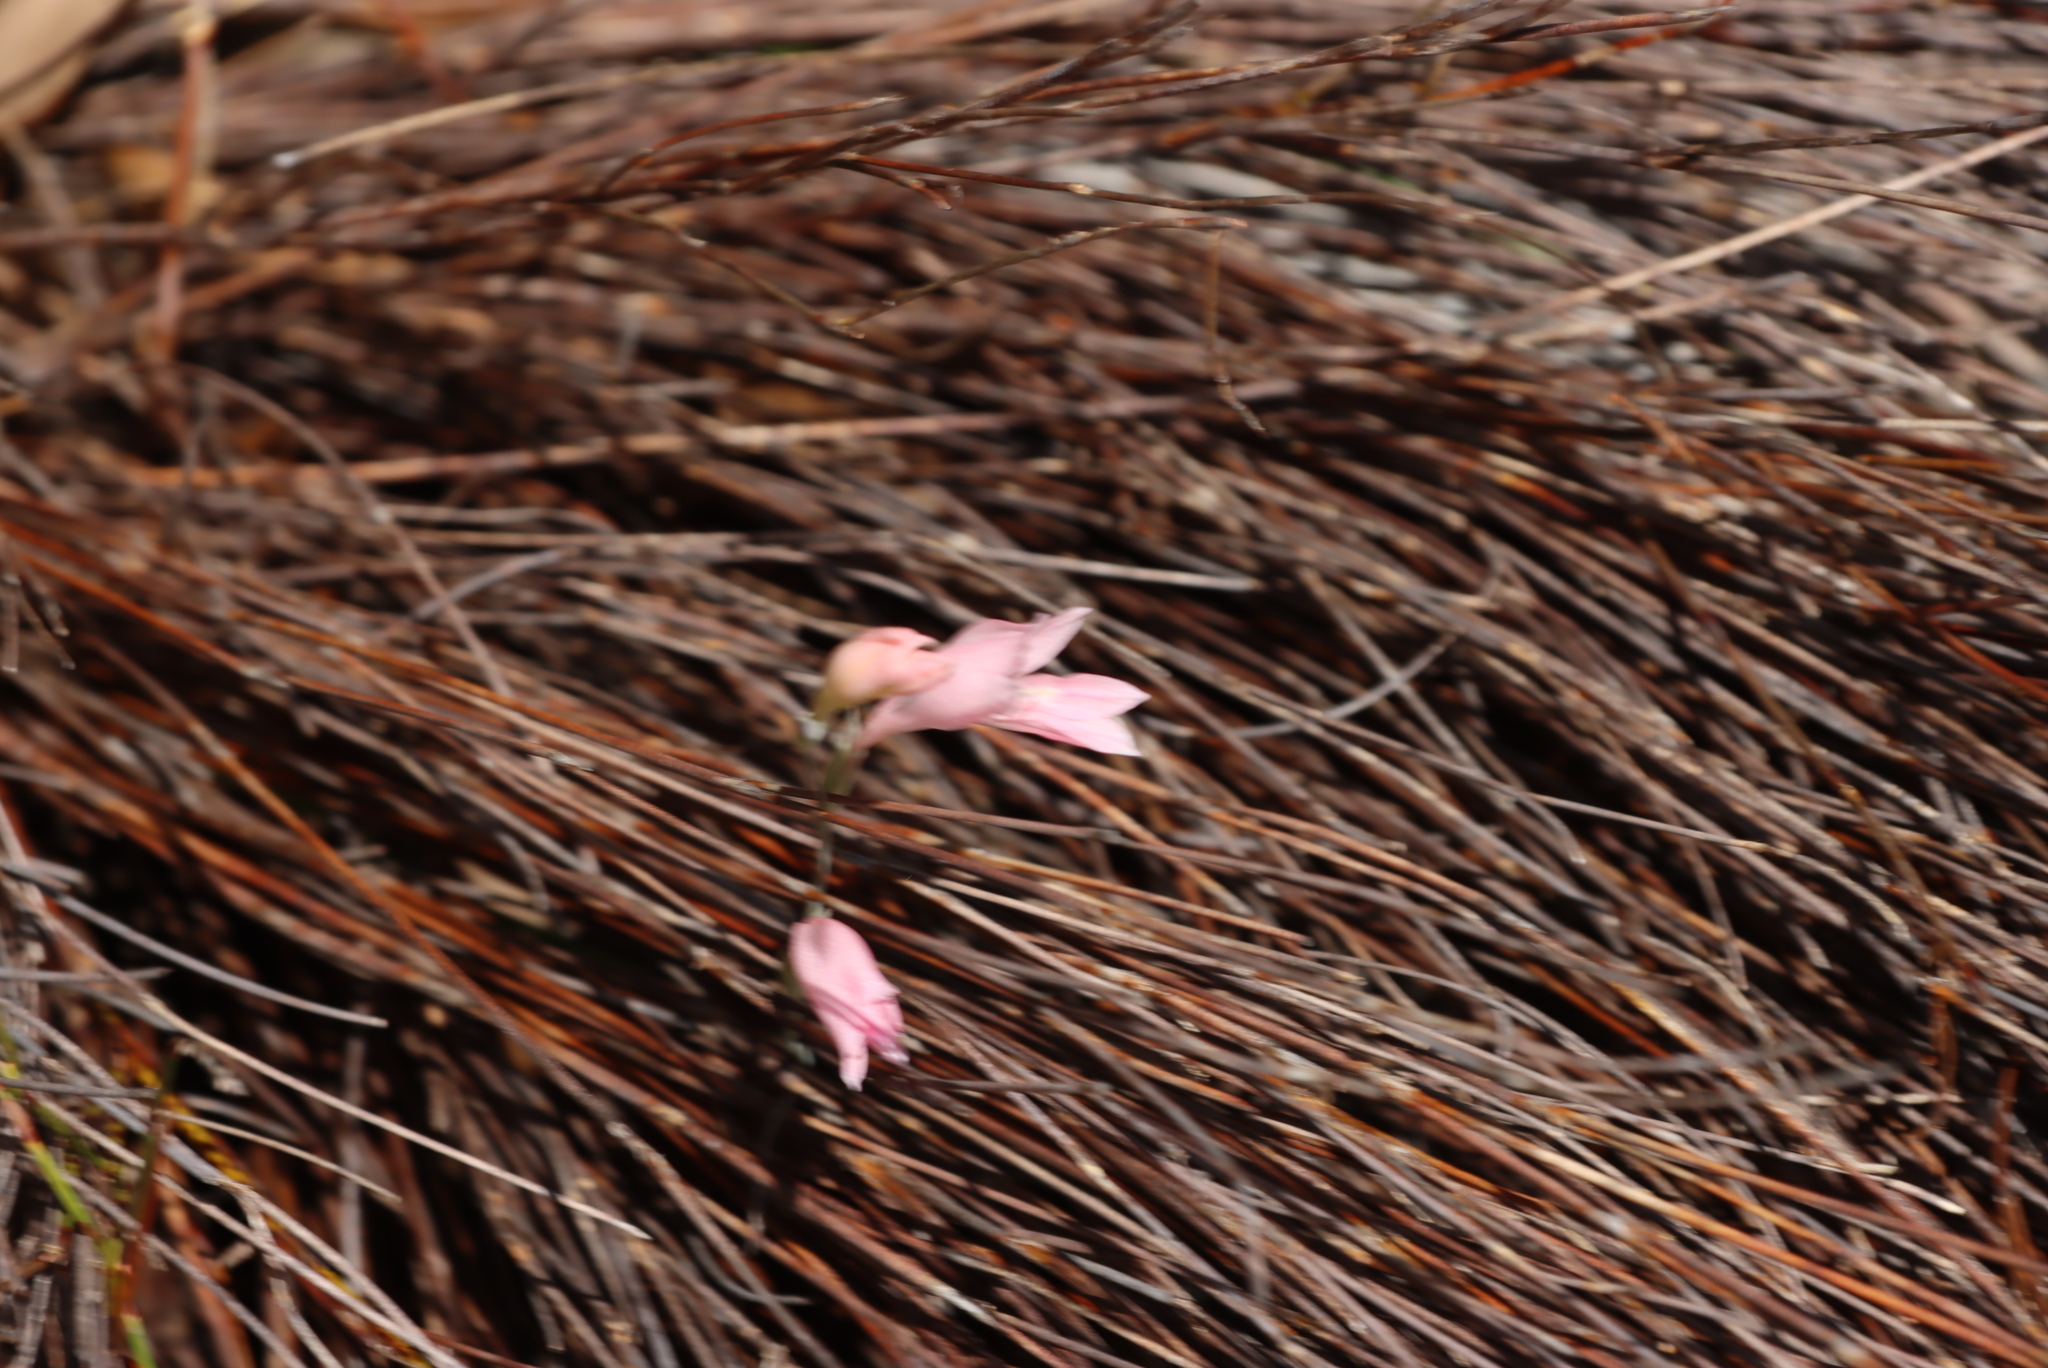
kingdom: Plantae
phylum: Tracheophyta
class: Liliopsida
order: Asparagales
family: Iridaceae
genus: Gladiolus
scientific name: Gladiolus brevifolius
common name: March pypie
